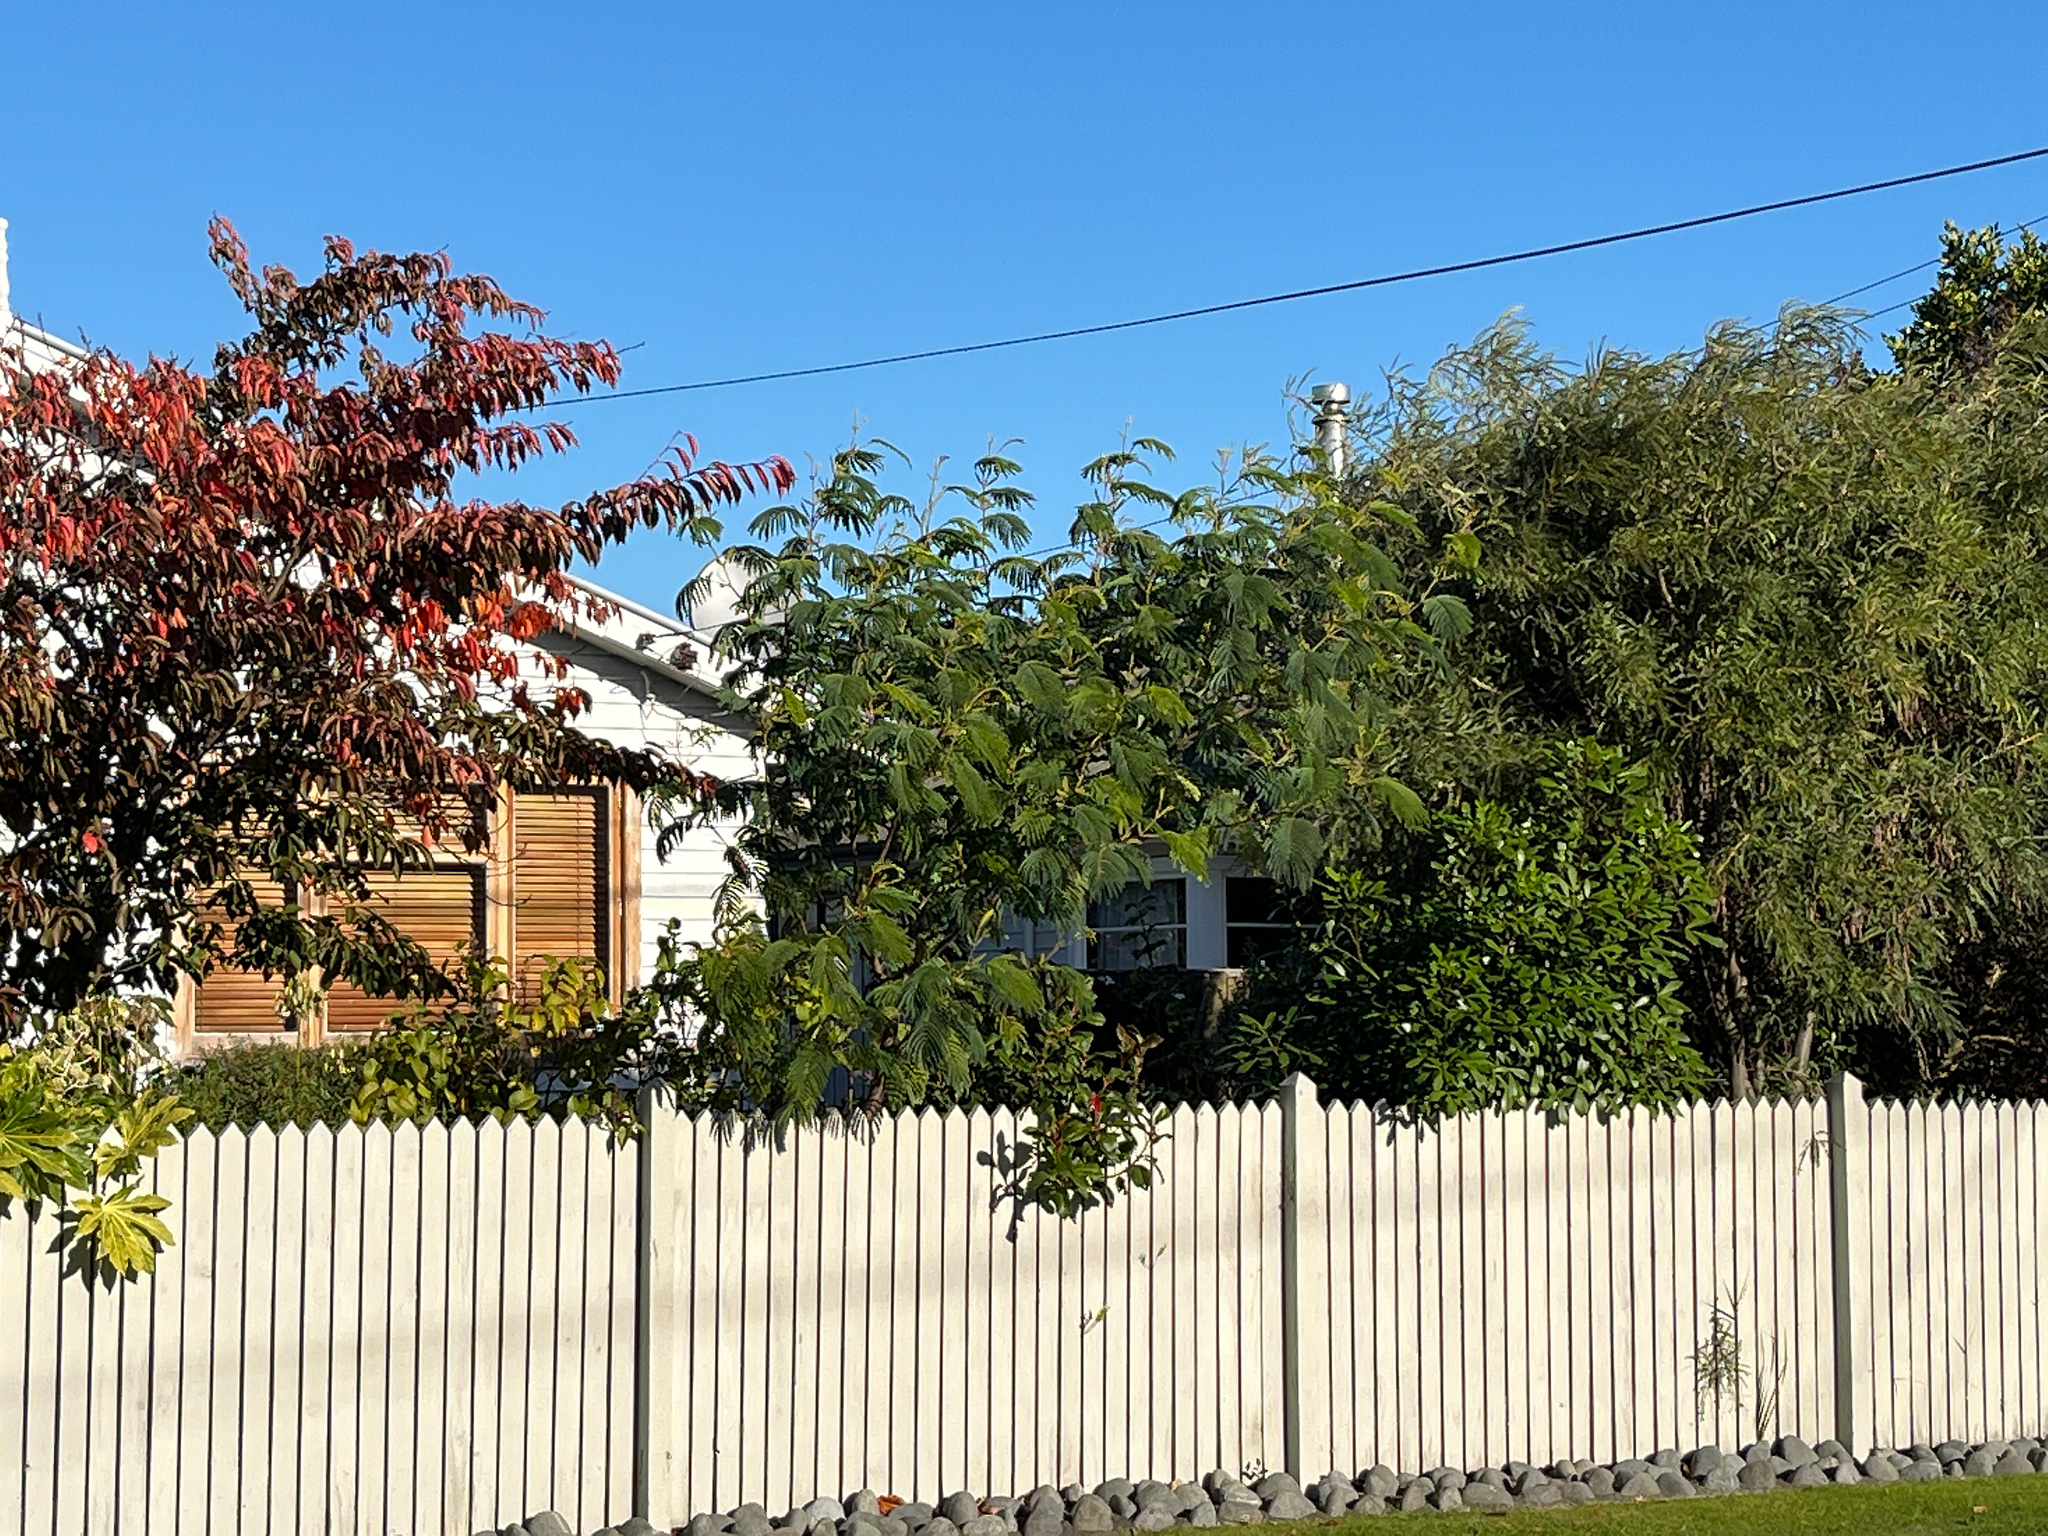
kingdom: Plantae
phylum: Tracheophyta
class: Magnoliopsida
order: Fabales
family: Fabaceae
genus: Paraserianthes
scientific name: Paraserianthes lophantha
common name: Plume albizia
